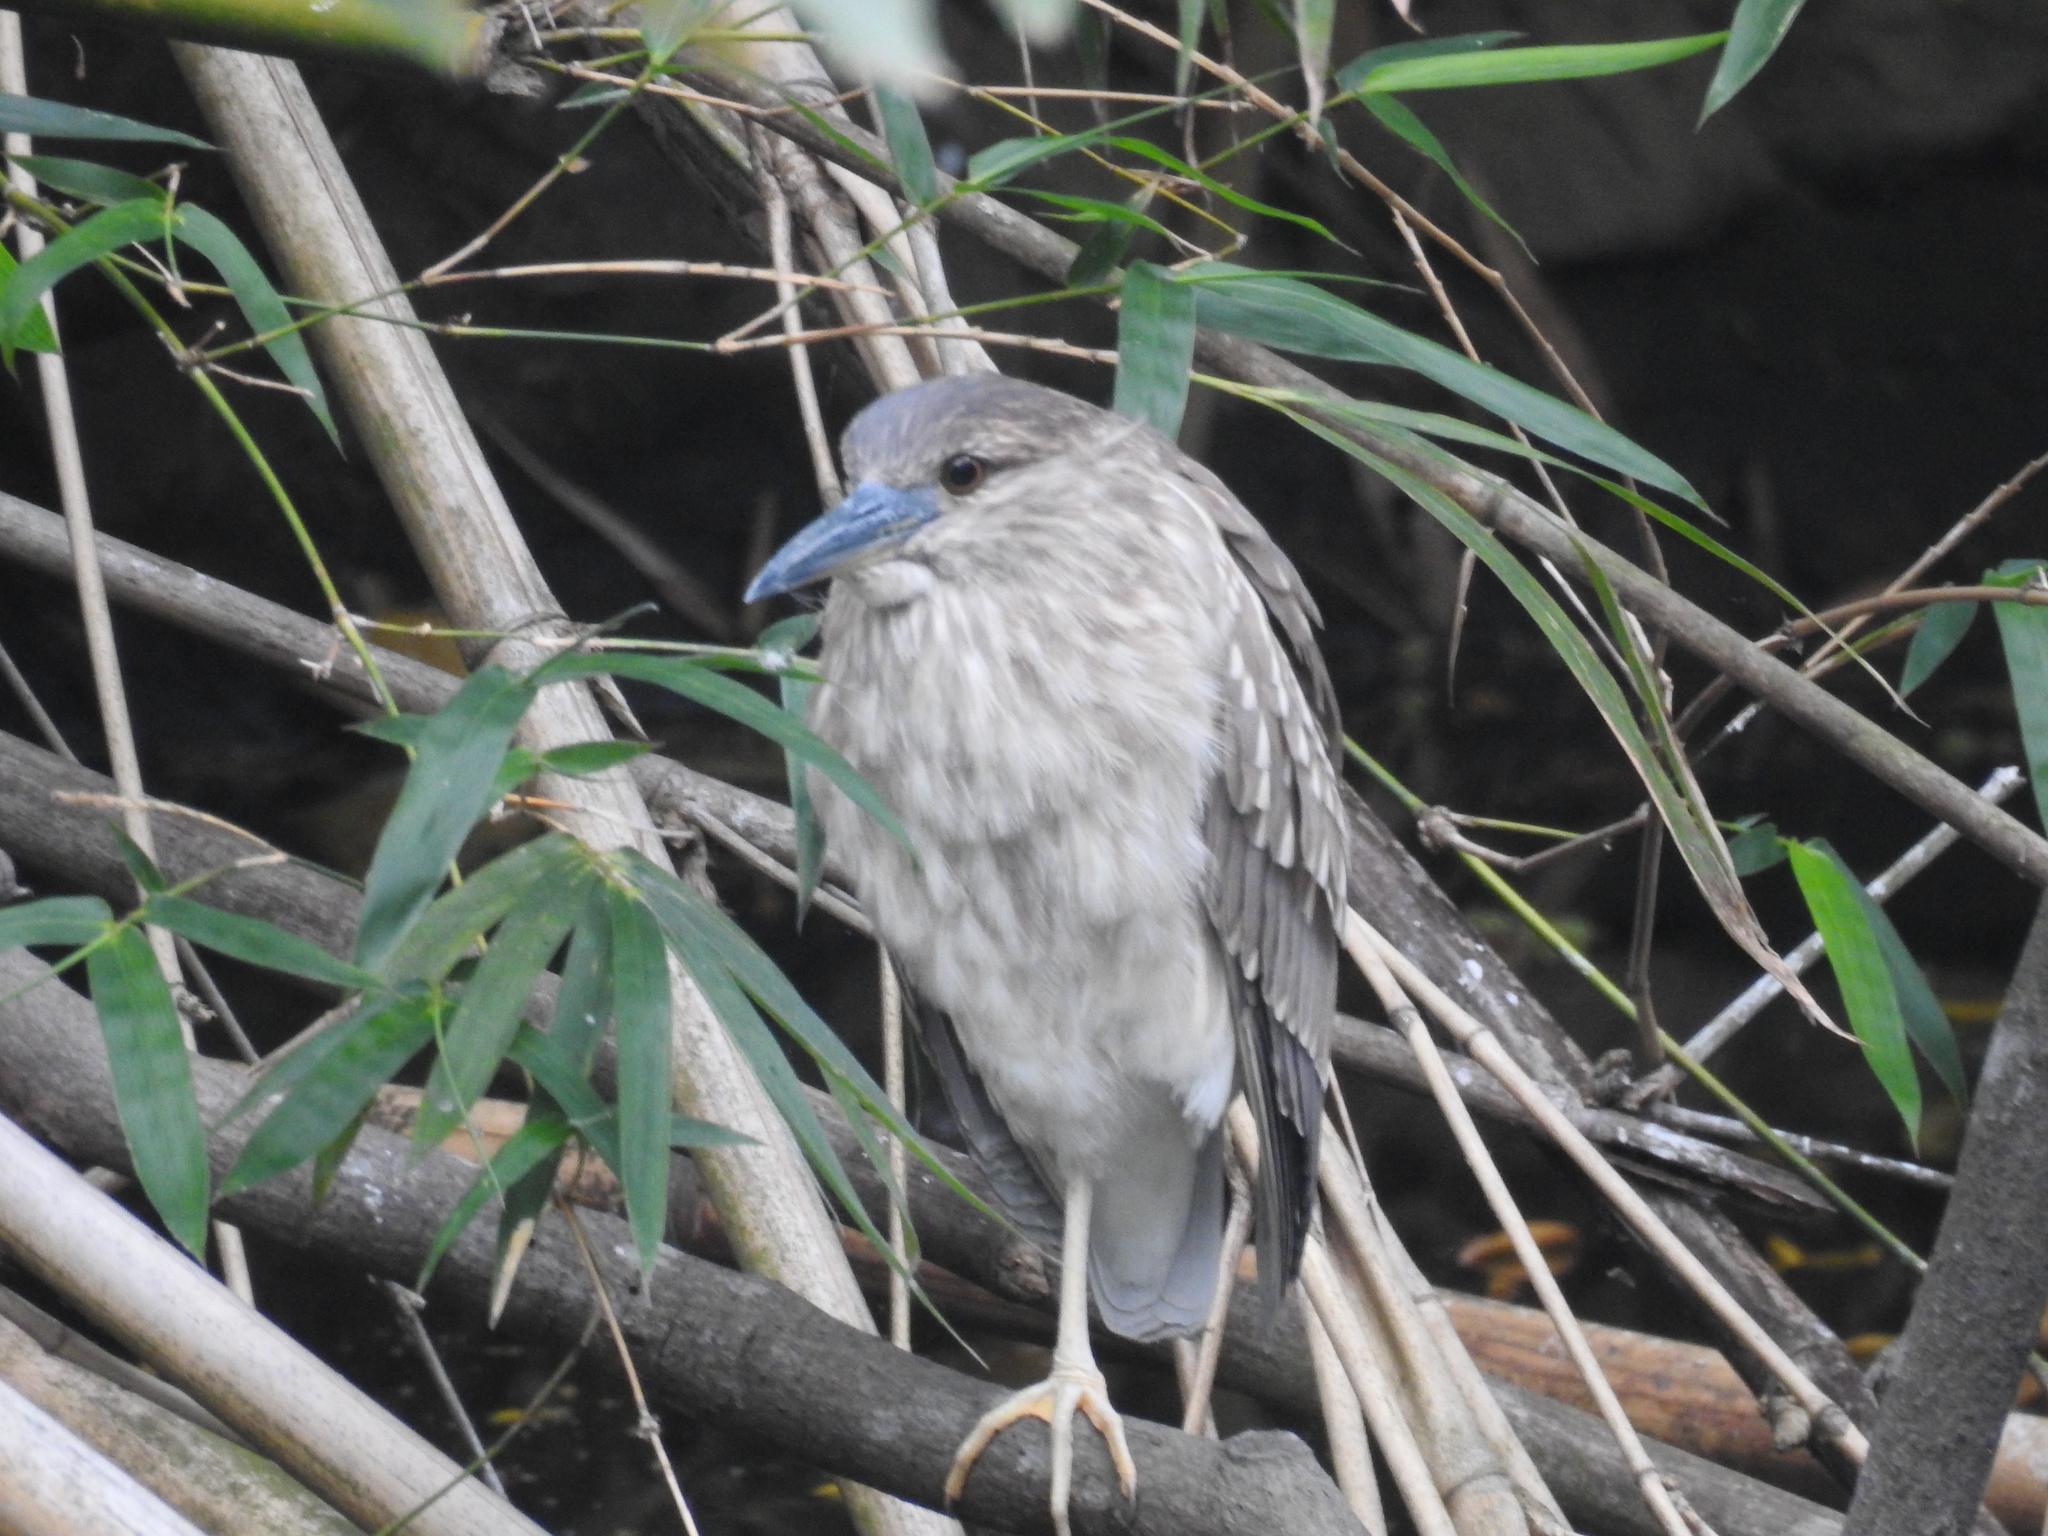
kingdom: Animalia
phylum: Chordata
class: Aves
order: Pelecaniformes
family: Ardeidae
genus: Nycticorax
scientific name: Nycticorax nycticorax
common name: Black-crowned night heron
